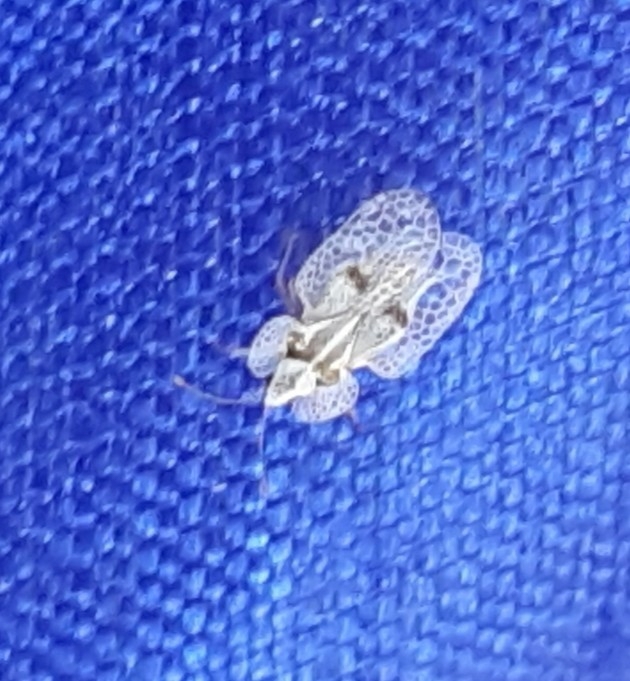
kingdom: Animalia
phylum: Arthropoda
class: Insecta
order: Hemiptera
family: Tingidae
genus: Corythucha
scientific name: Corythucha ciliata
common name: Sycamore lace bug
